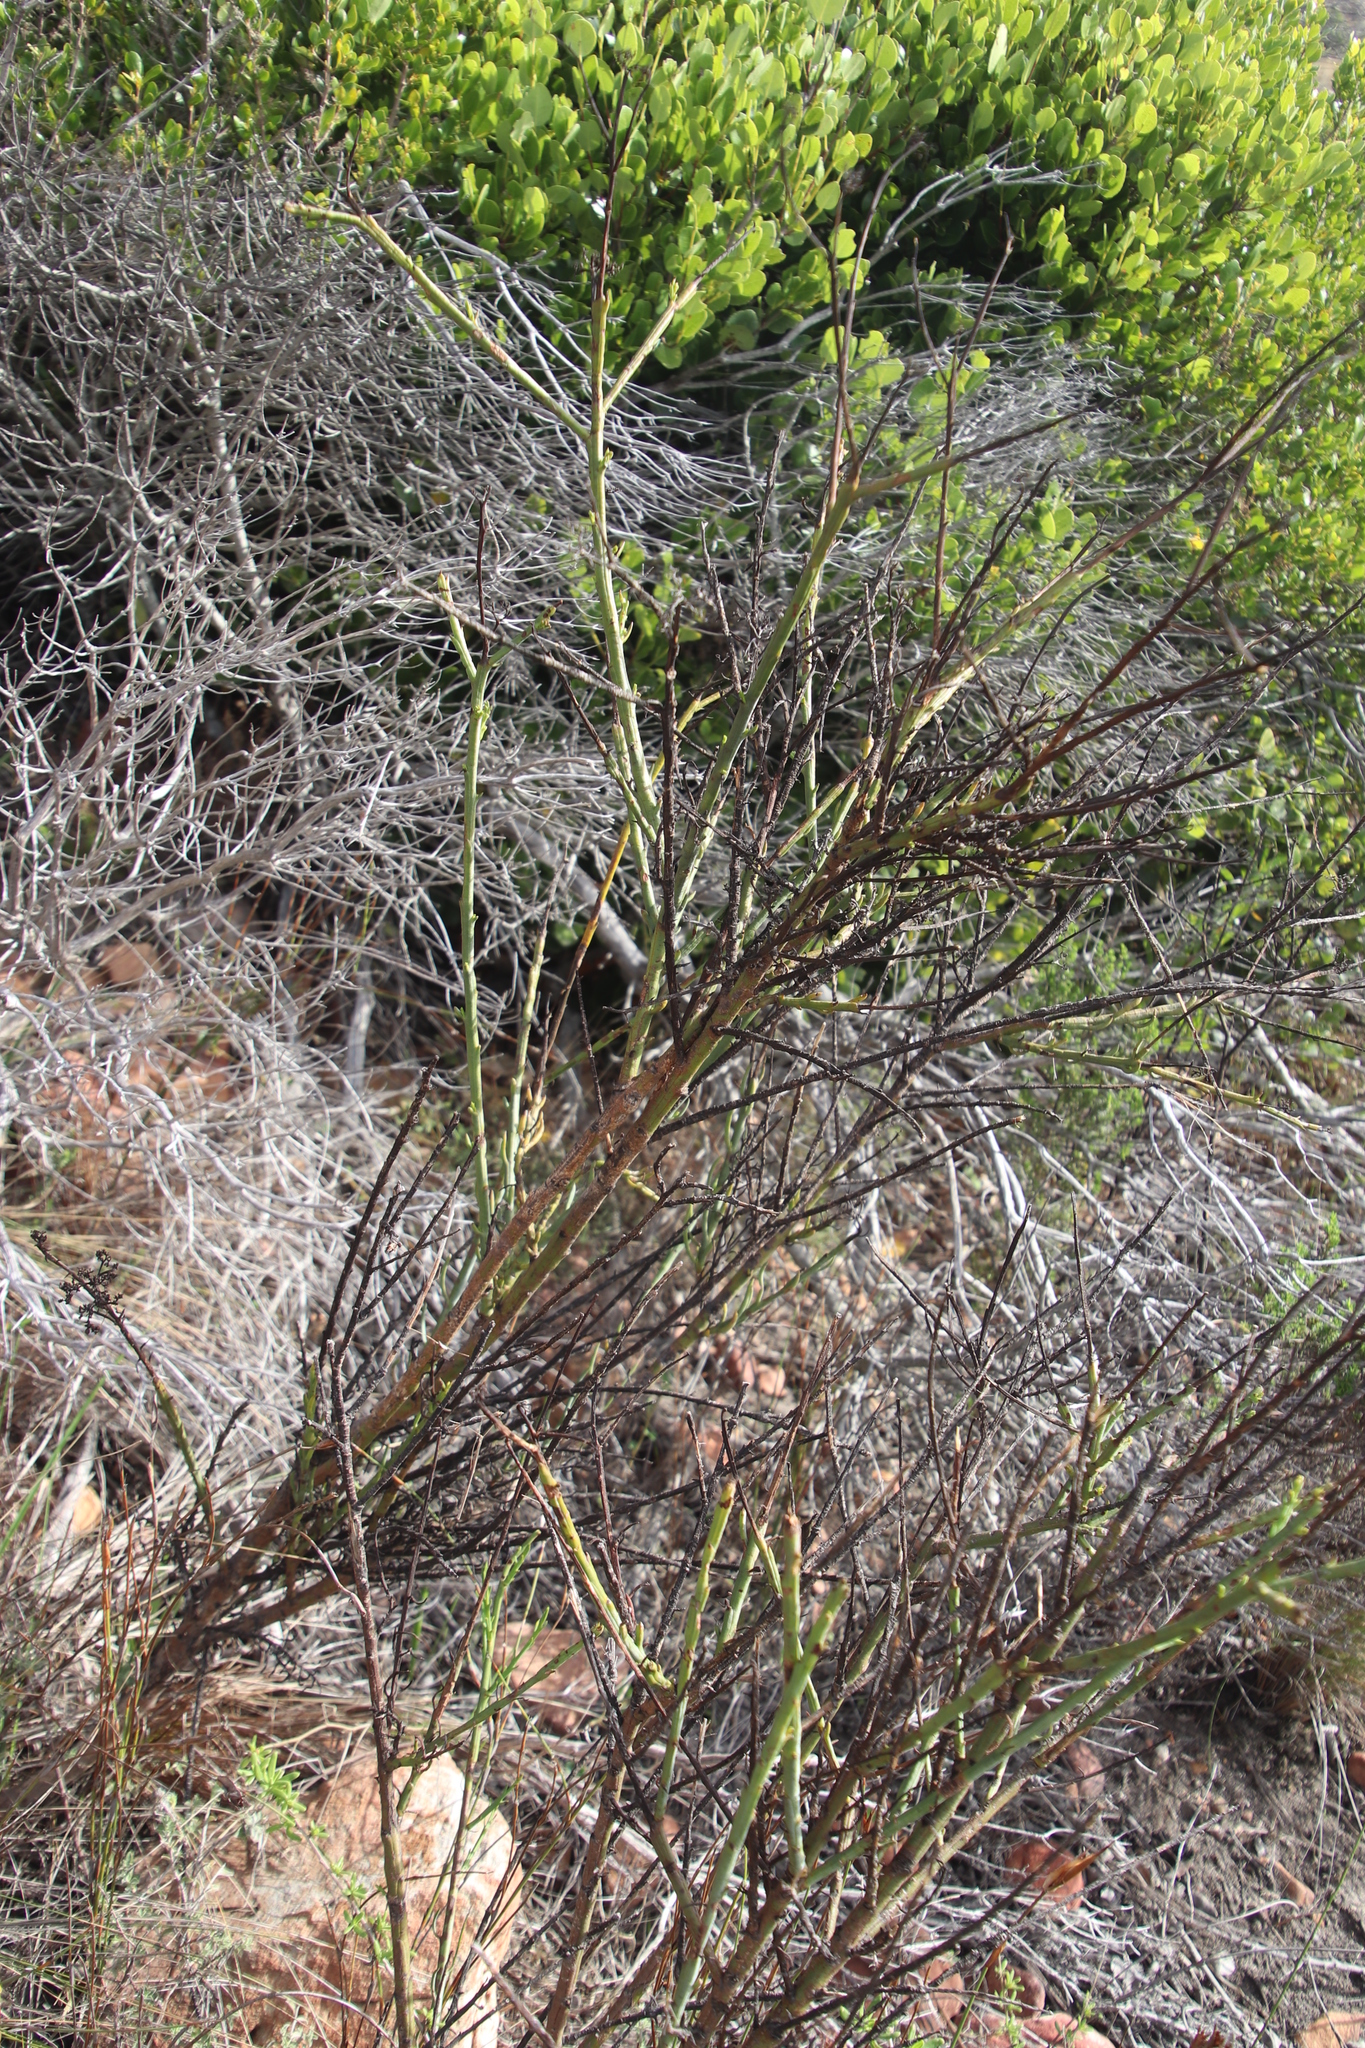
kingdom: Plantae
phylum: Tracheophyta
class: Magnoliopsida
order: Santalales
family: Thesiaceae
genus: Thesium
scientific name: Thesium strictum
